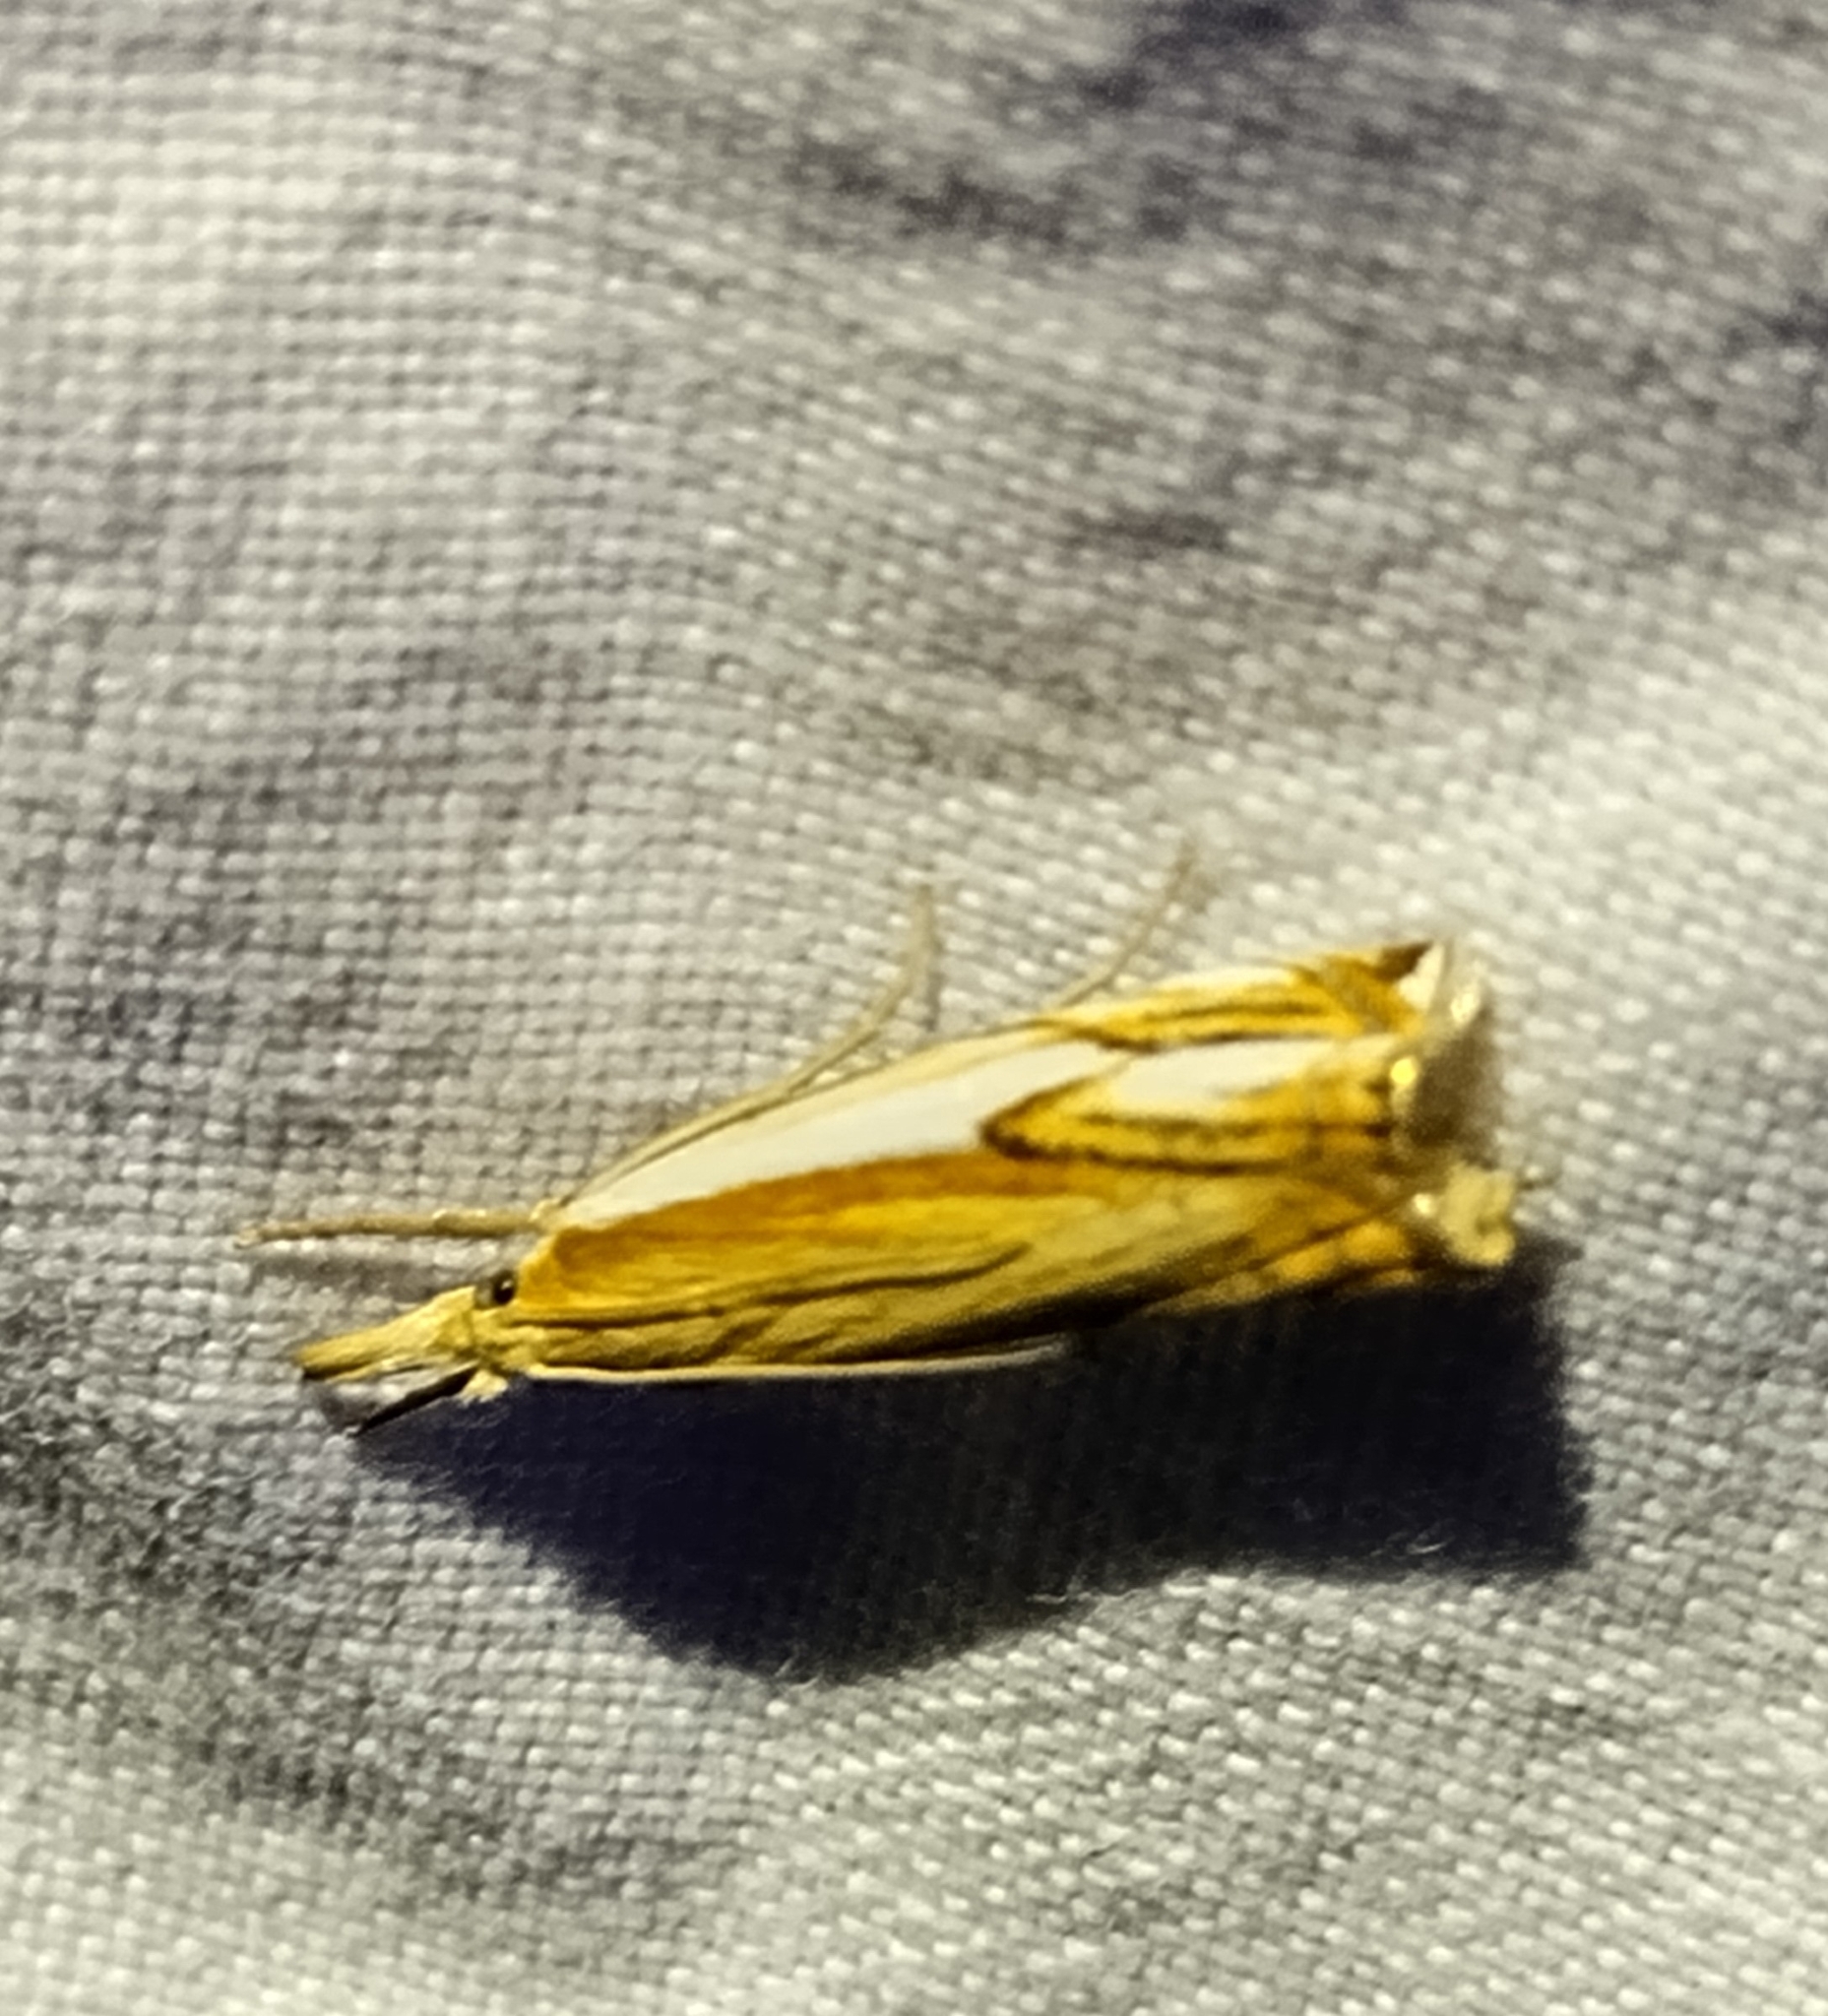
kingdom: Animalia
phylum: Arthropoda
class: Insecta
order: Lepidoptera
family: Crambidae
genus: Crambus
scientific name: Crambus agitatellus
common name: Double-banded grass-veneer
